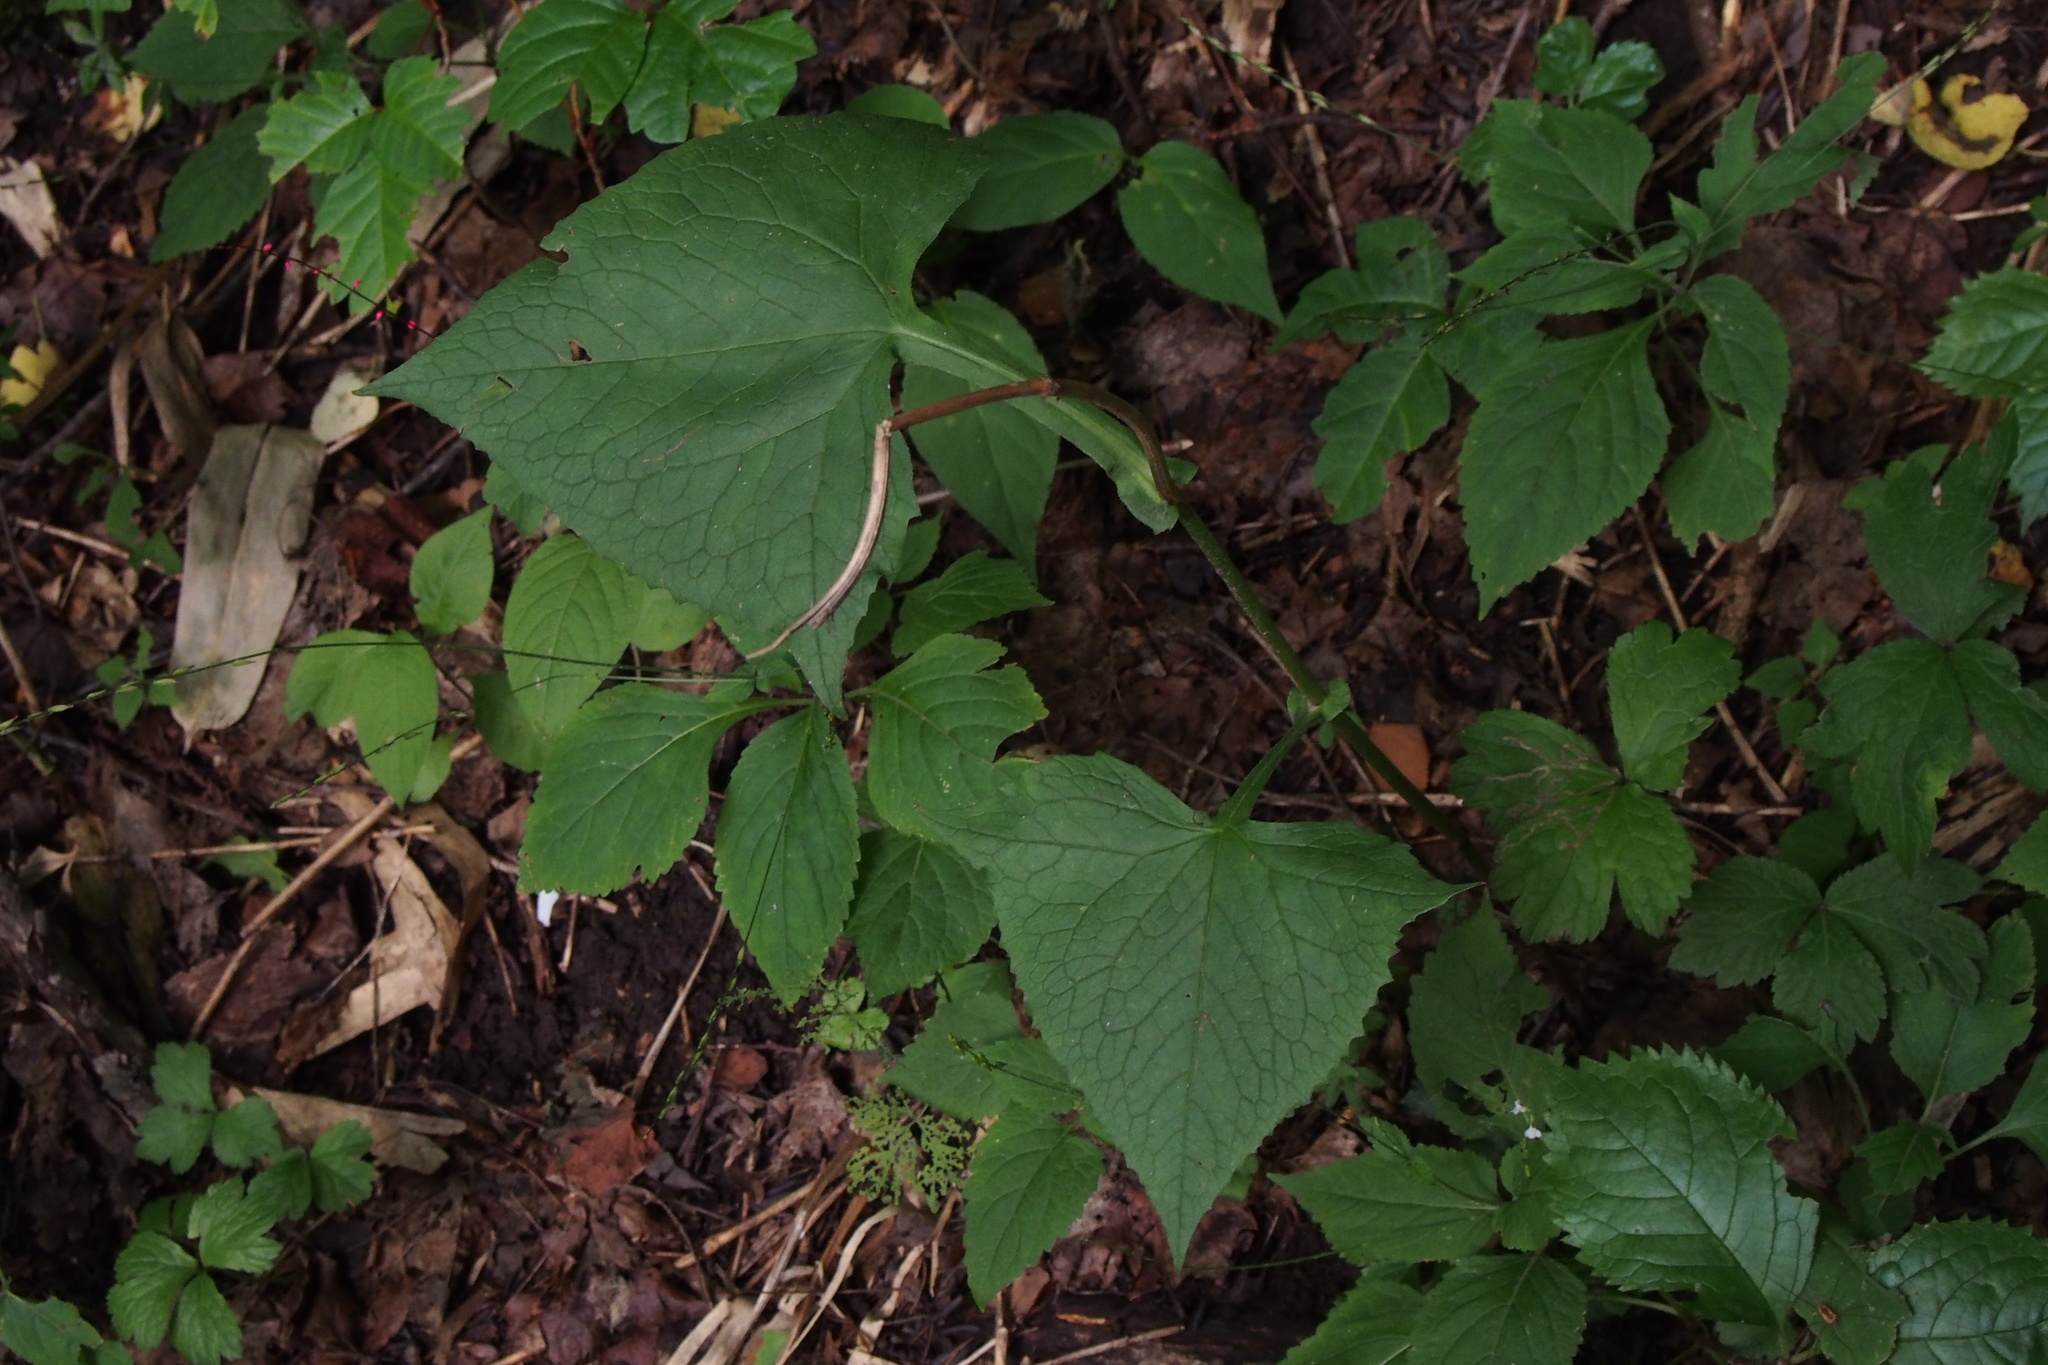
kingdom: Plantae
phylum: Tracheophyta
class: Magnoliopsida
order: Asterales
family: Asteraceae
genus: Parasenecio
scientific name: Parasenecio hastatus
